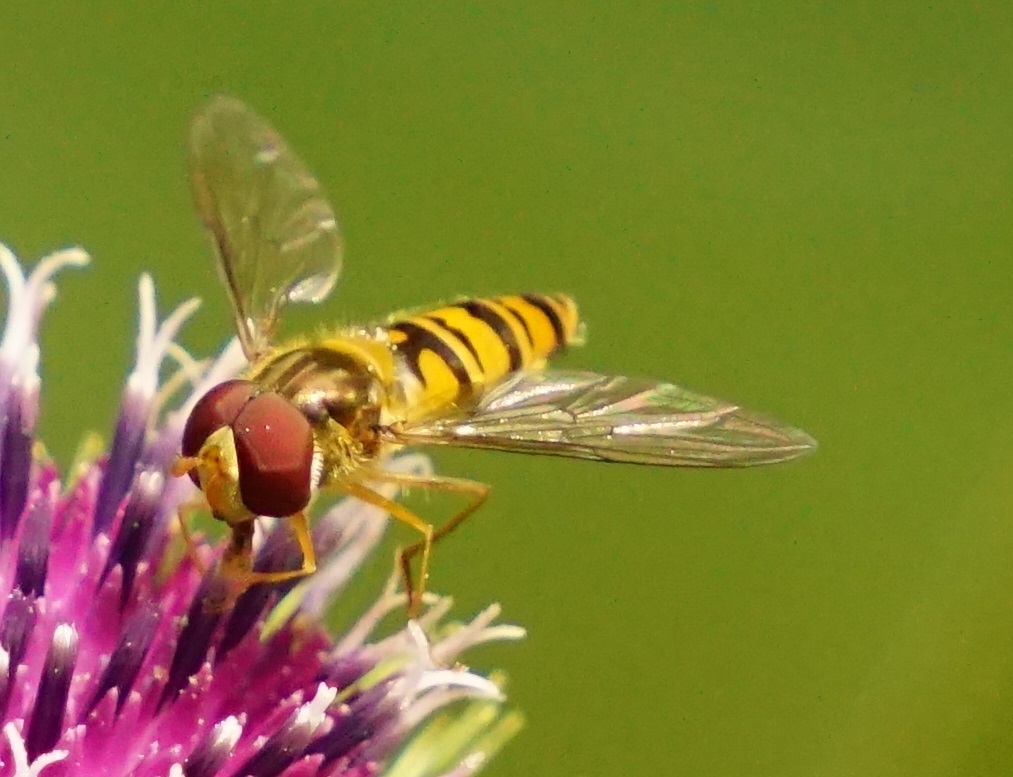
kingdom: Animalia
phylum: Arthropoda
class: Insecta
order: Diptera
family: Syrphidae
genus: Episyrphus
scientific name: Episyrphus balteatus
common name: Marmalade hoverfly
